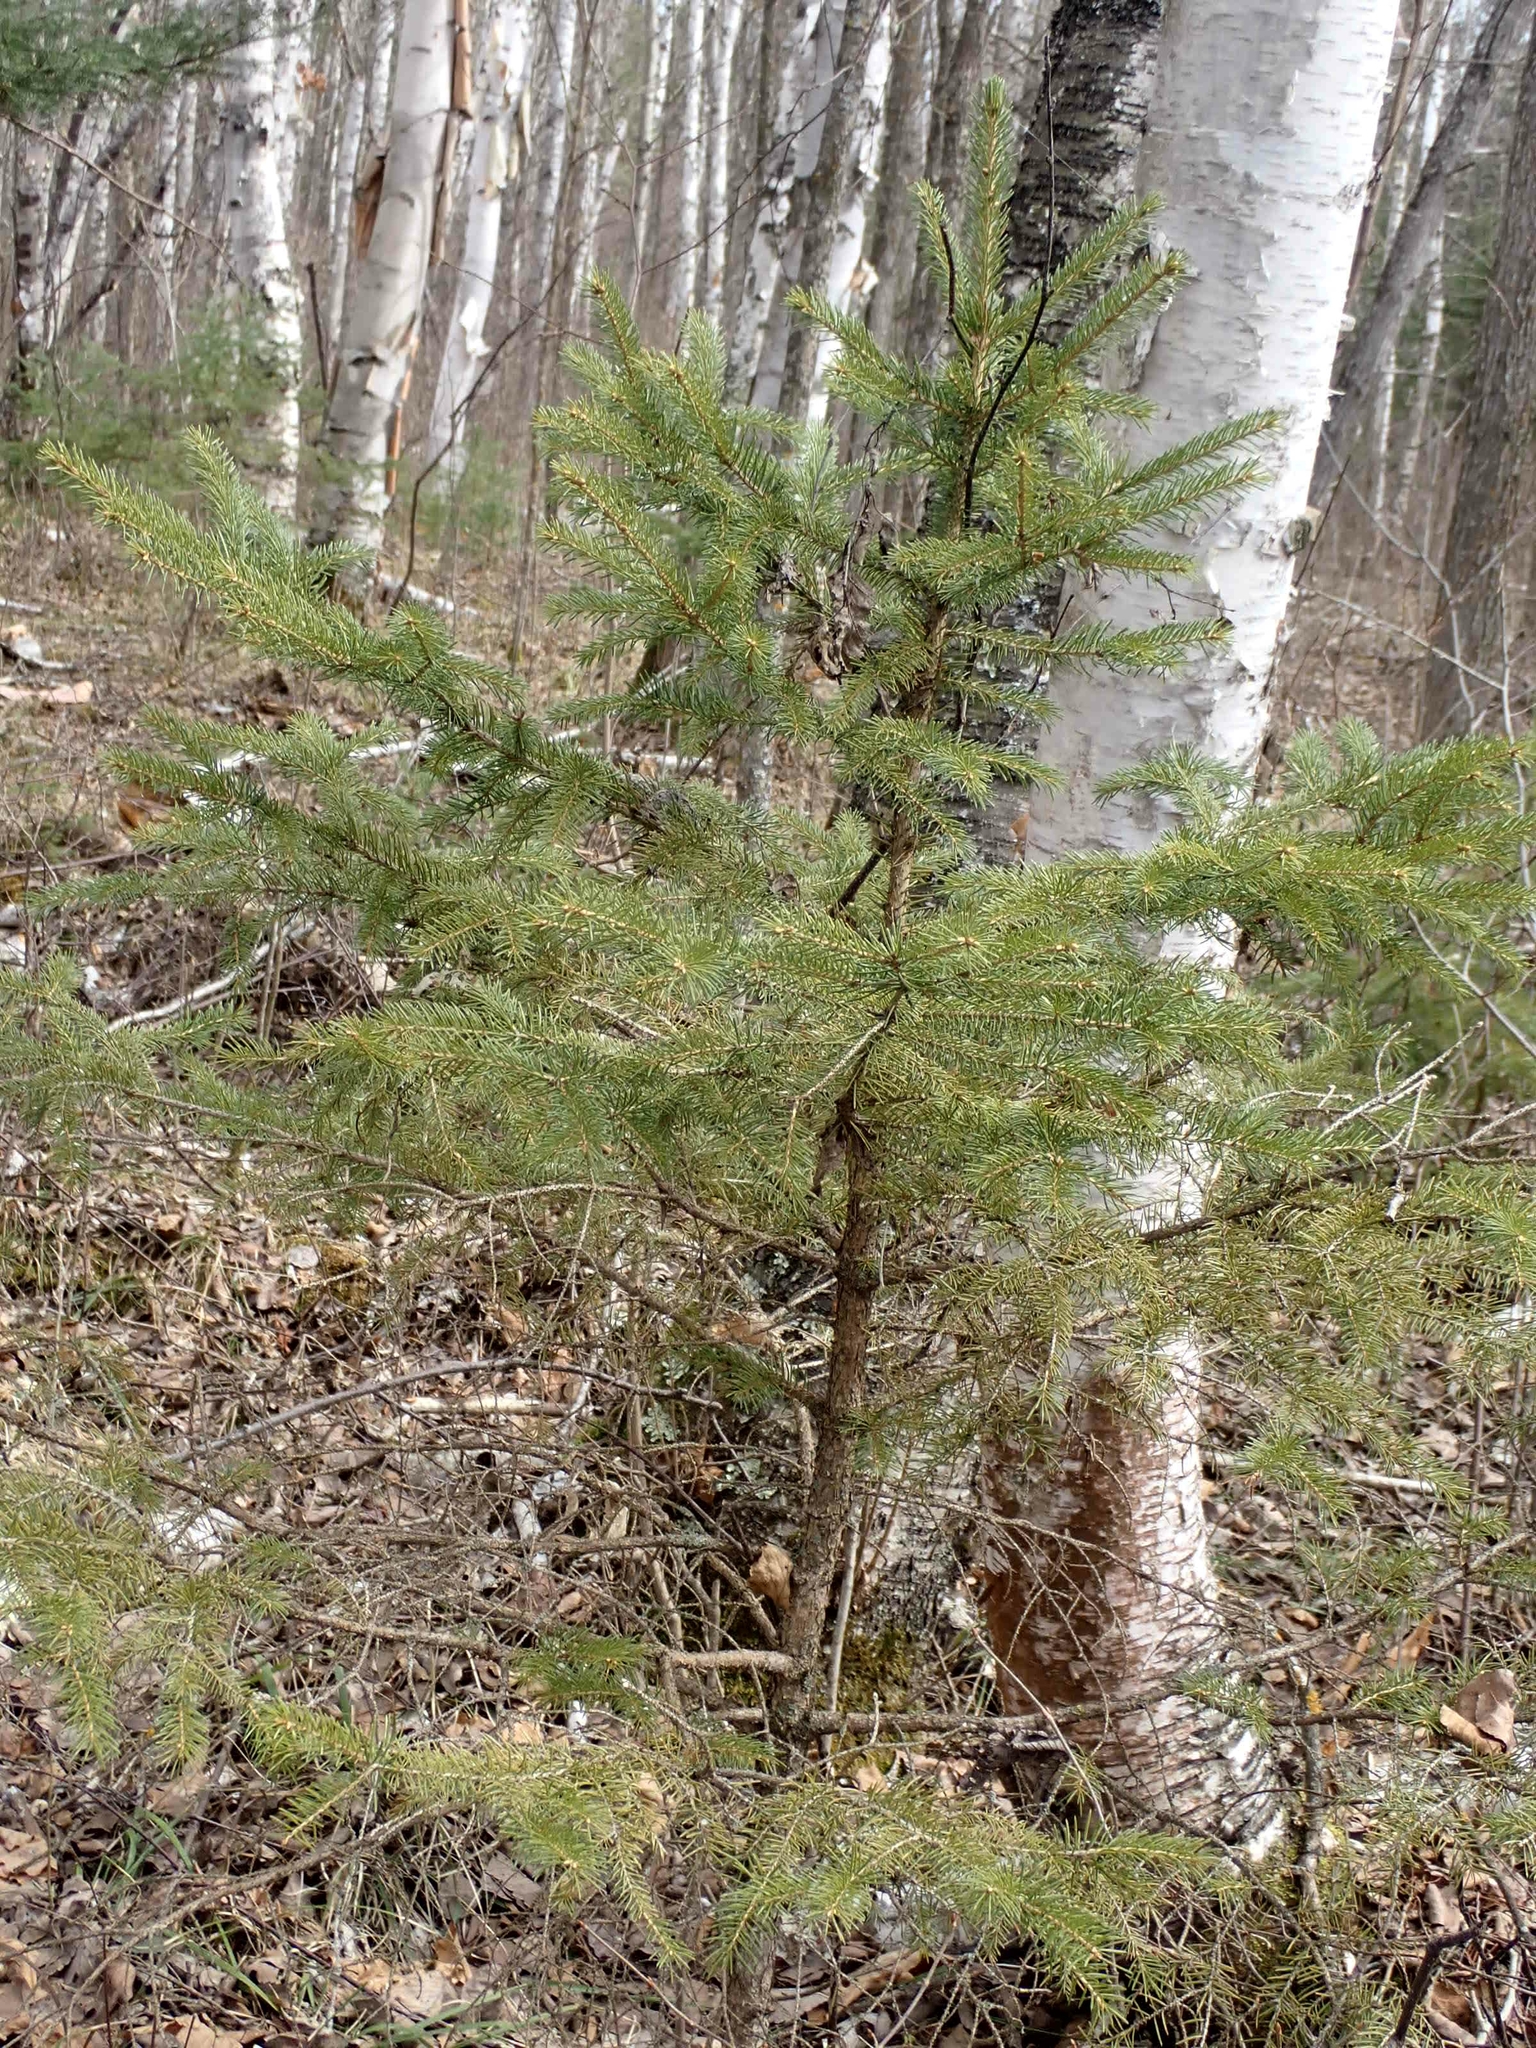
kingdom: Plantae
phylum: Tracheophyta
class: Pinopsida
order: Pinales
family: Pinaceae
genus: Picea
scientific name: Picea glauca
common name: White spruce
